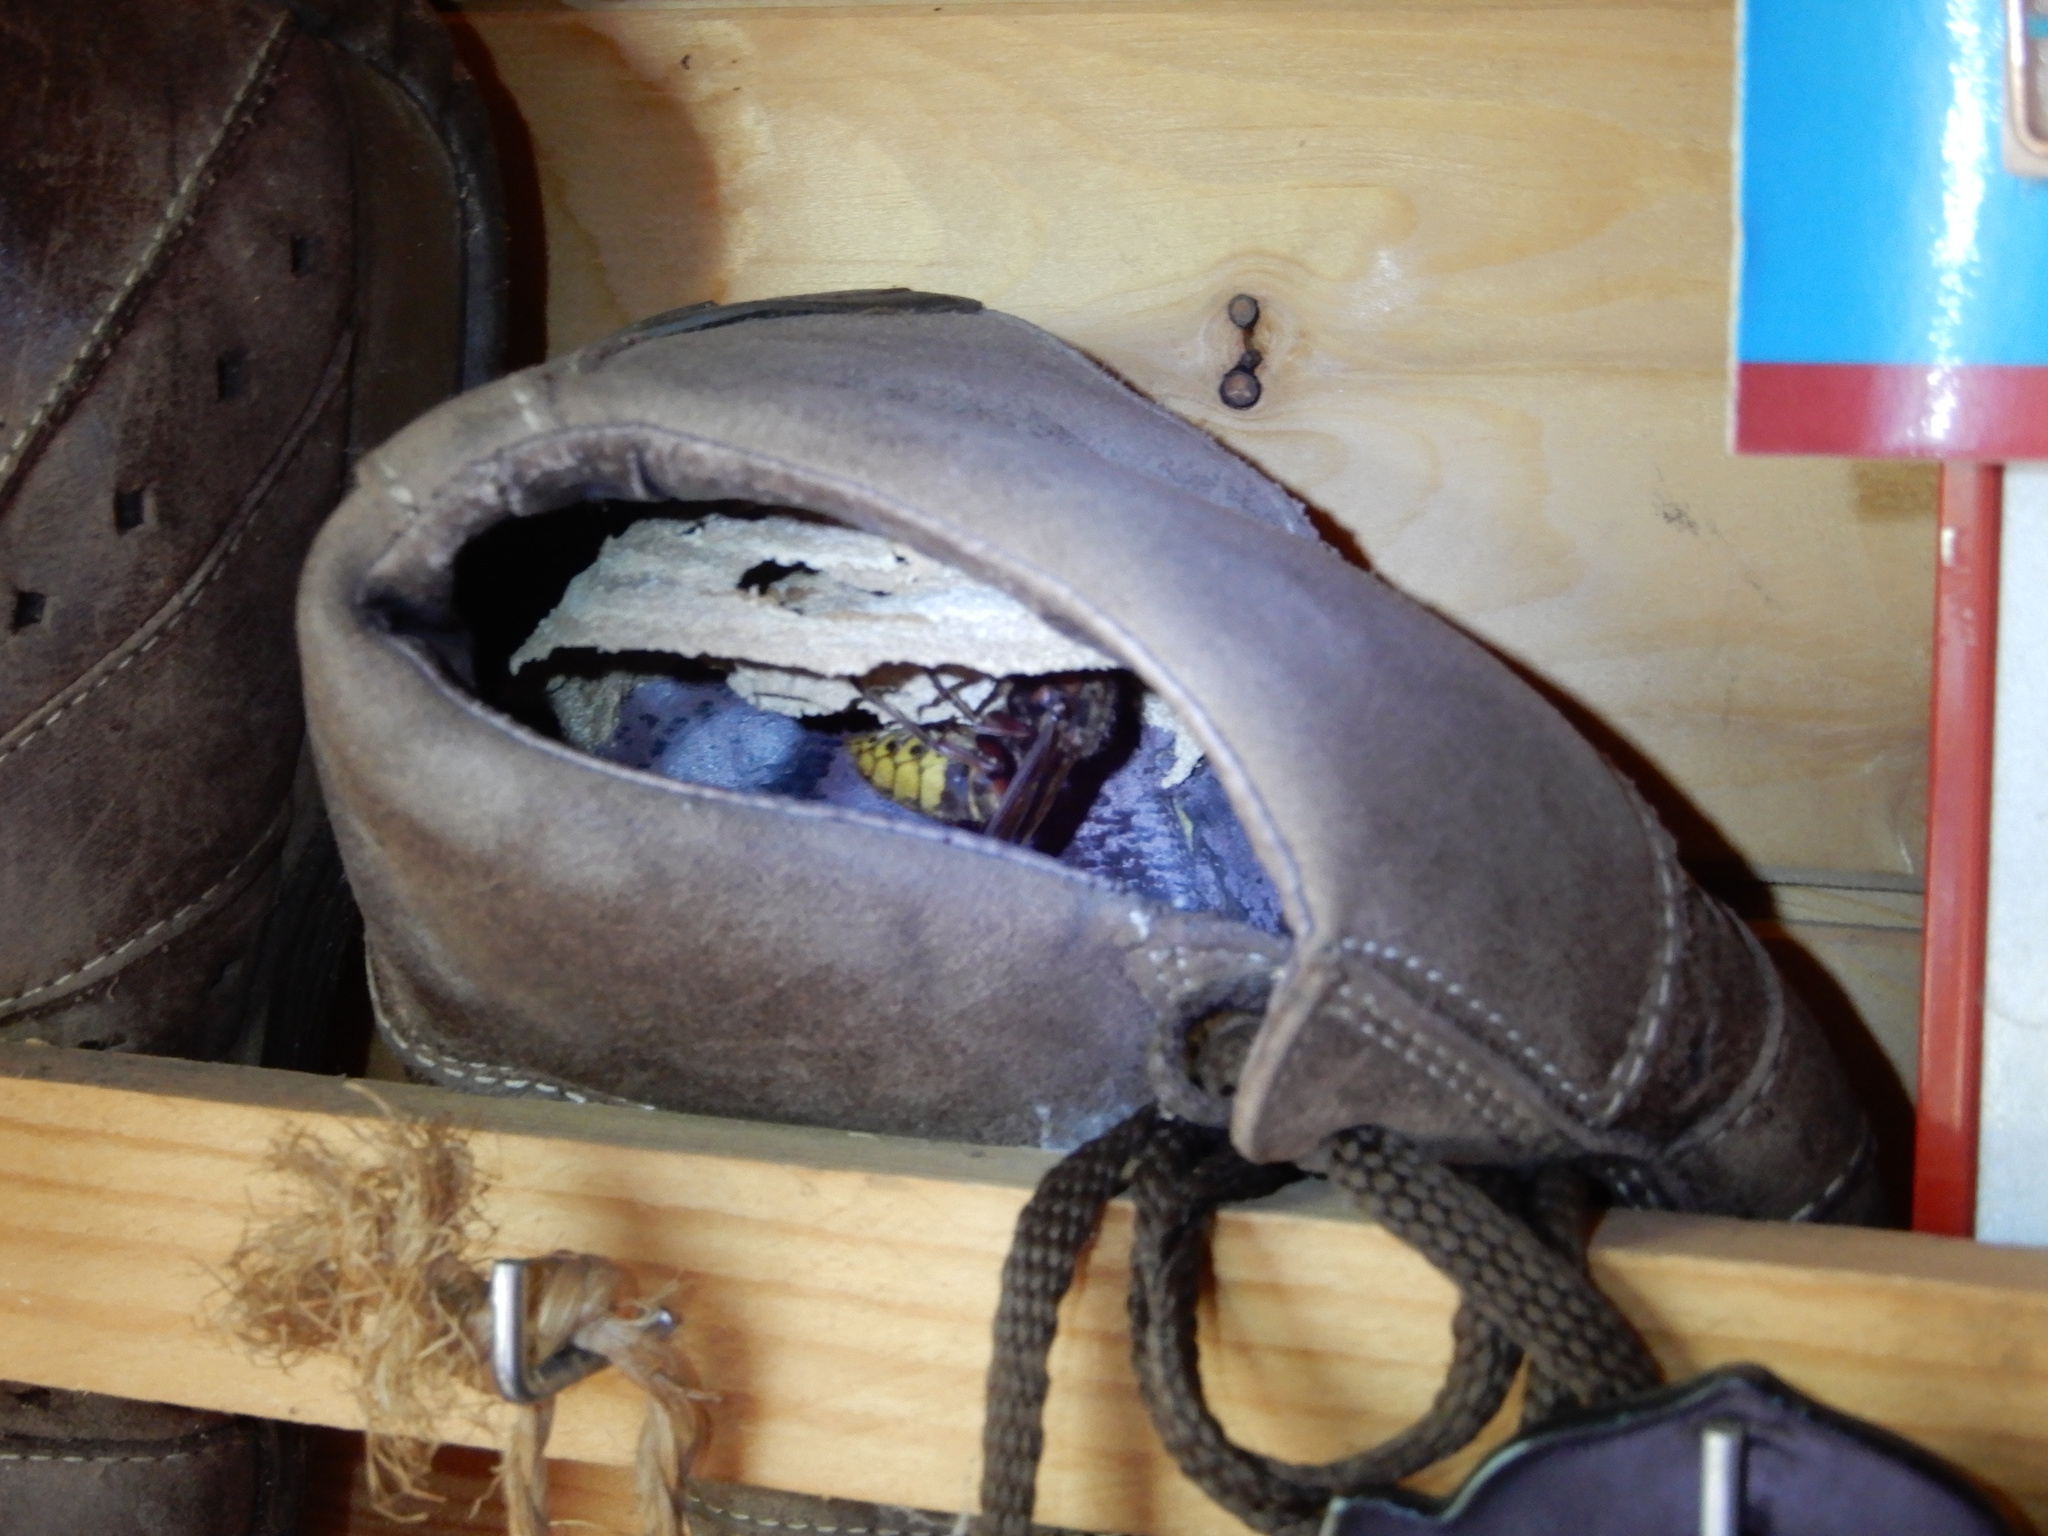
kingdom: Animalia
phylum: Arthropoda
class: Insecta
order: Hymenoptera
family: Vespidae
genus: Vespa
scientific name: Vespa crabro
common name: Hornet
